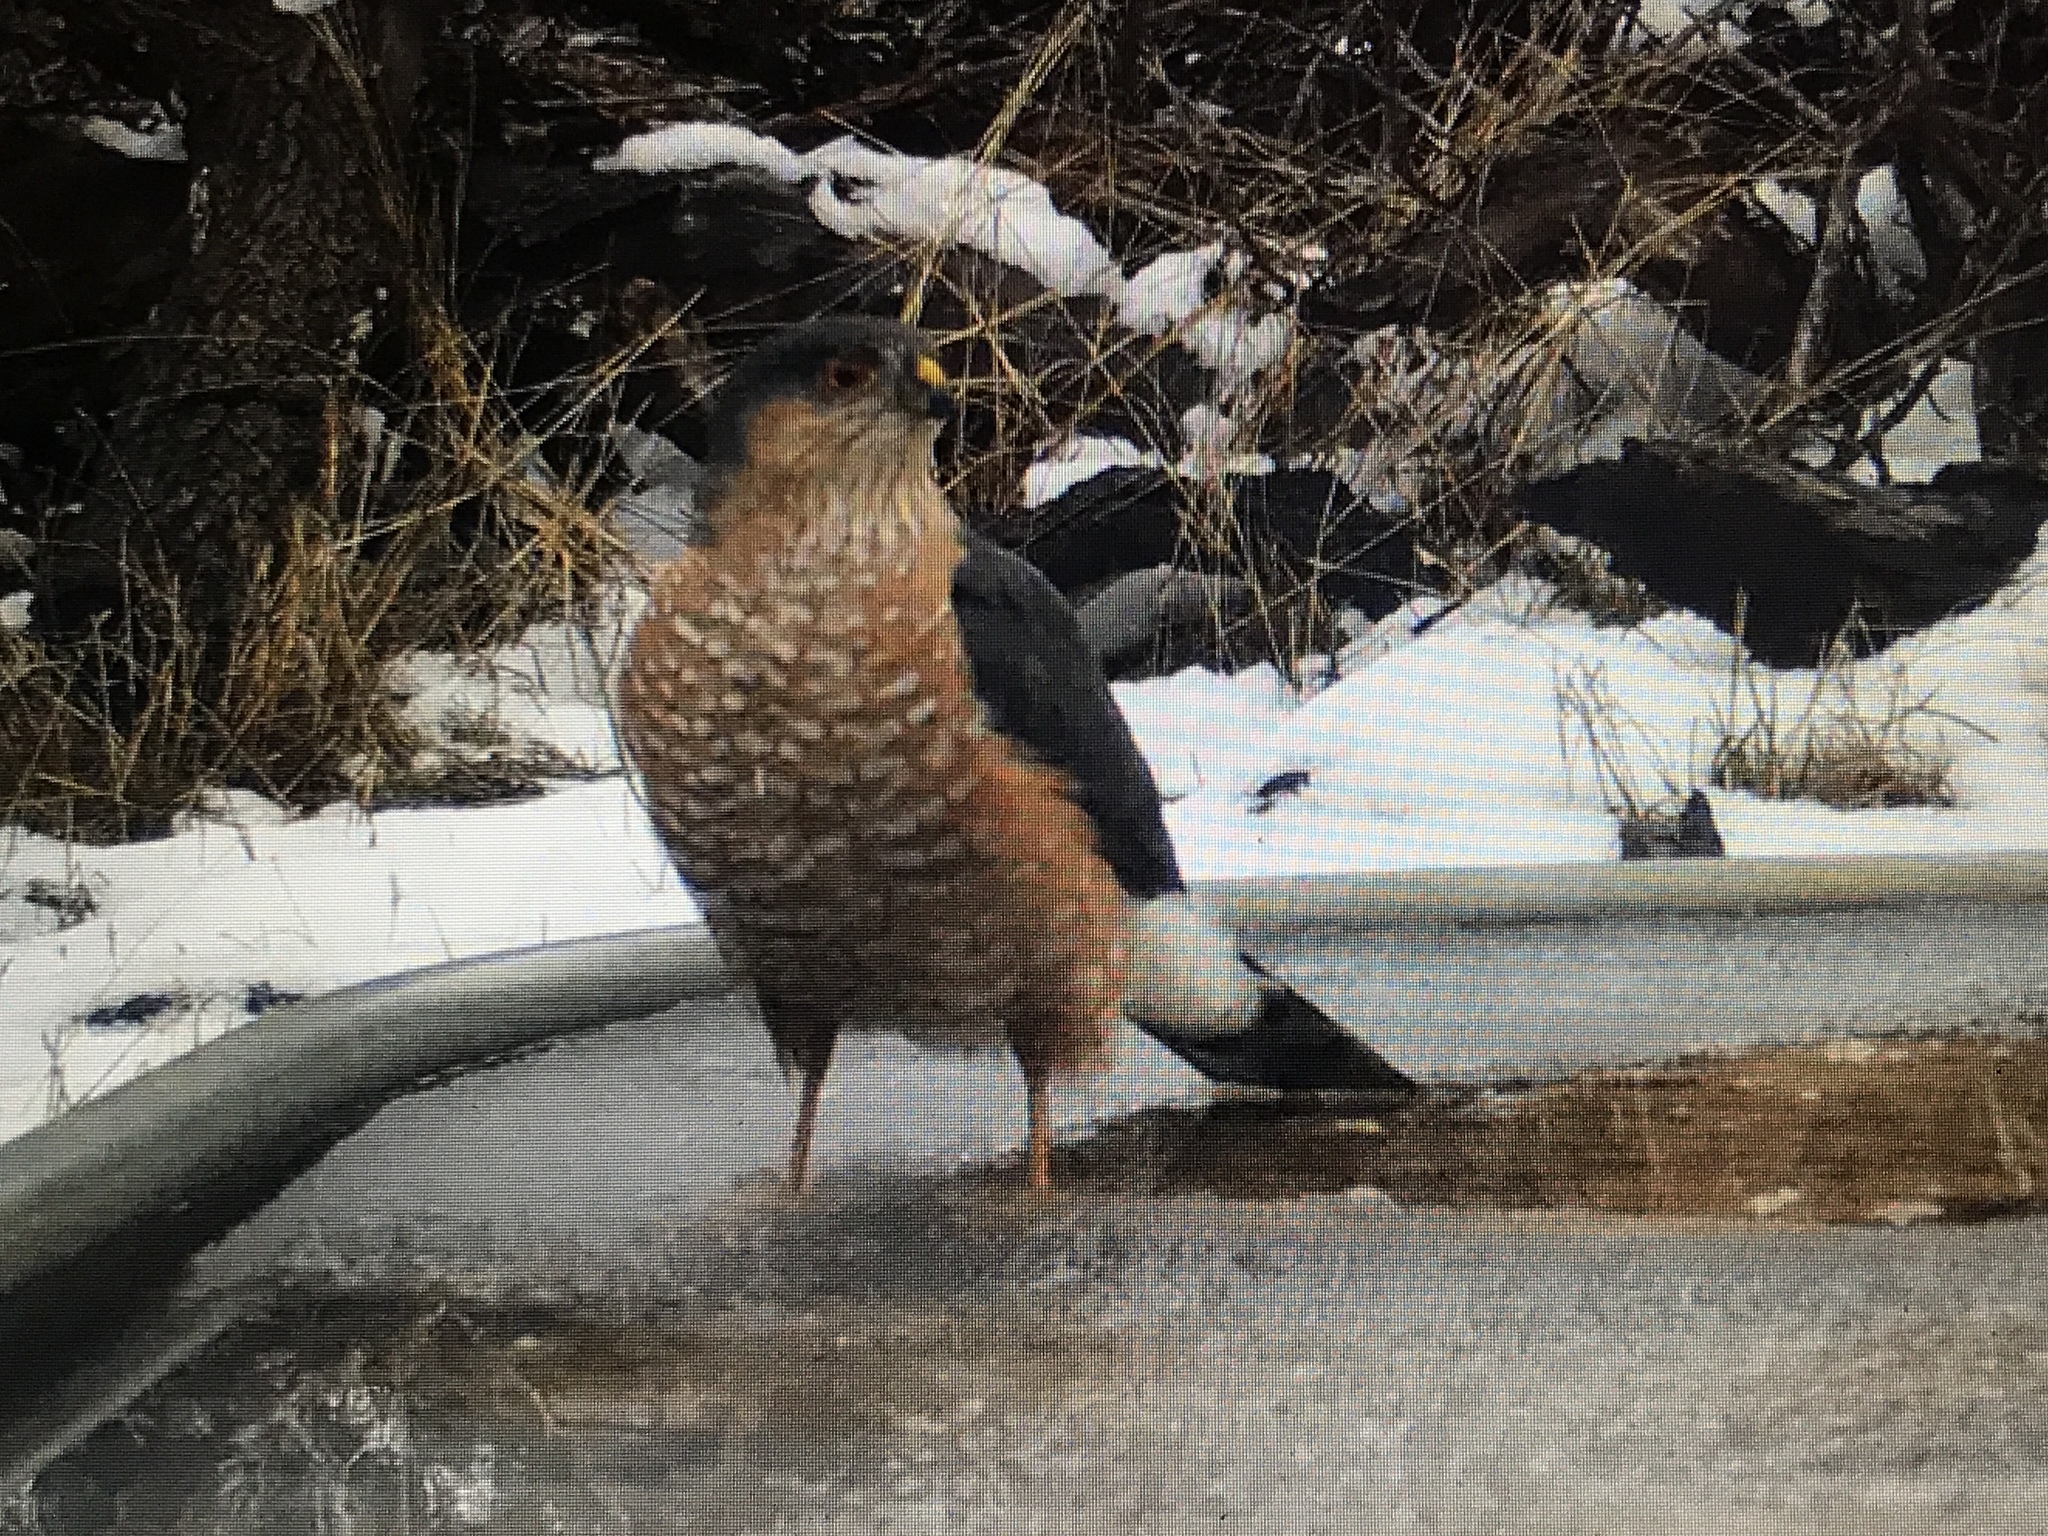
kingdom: Animalia
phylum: Chordata
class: Aves
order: Accipitriformes
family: Accipitridae
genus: Accipiter
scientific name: Accipiter striatus
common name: Sharp-shinned hawk
